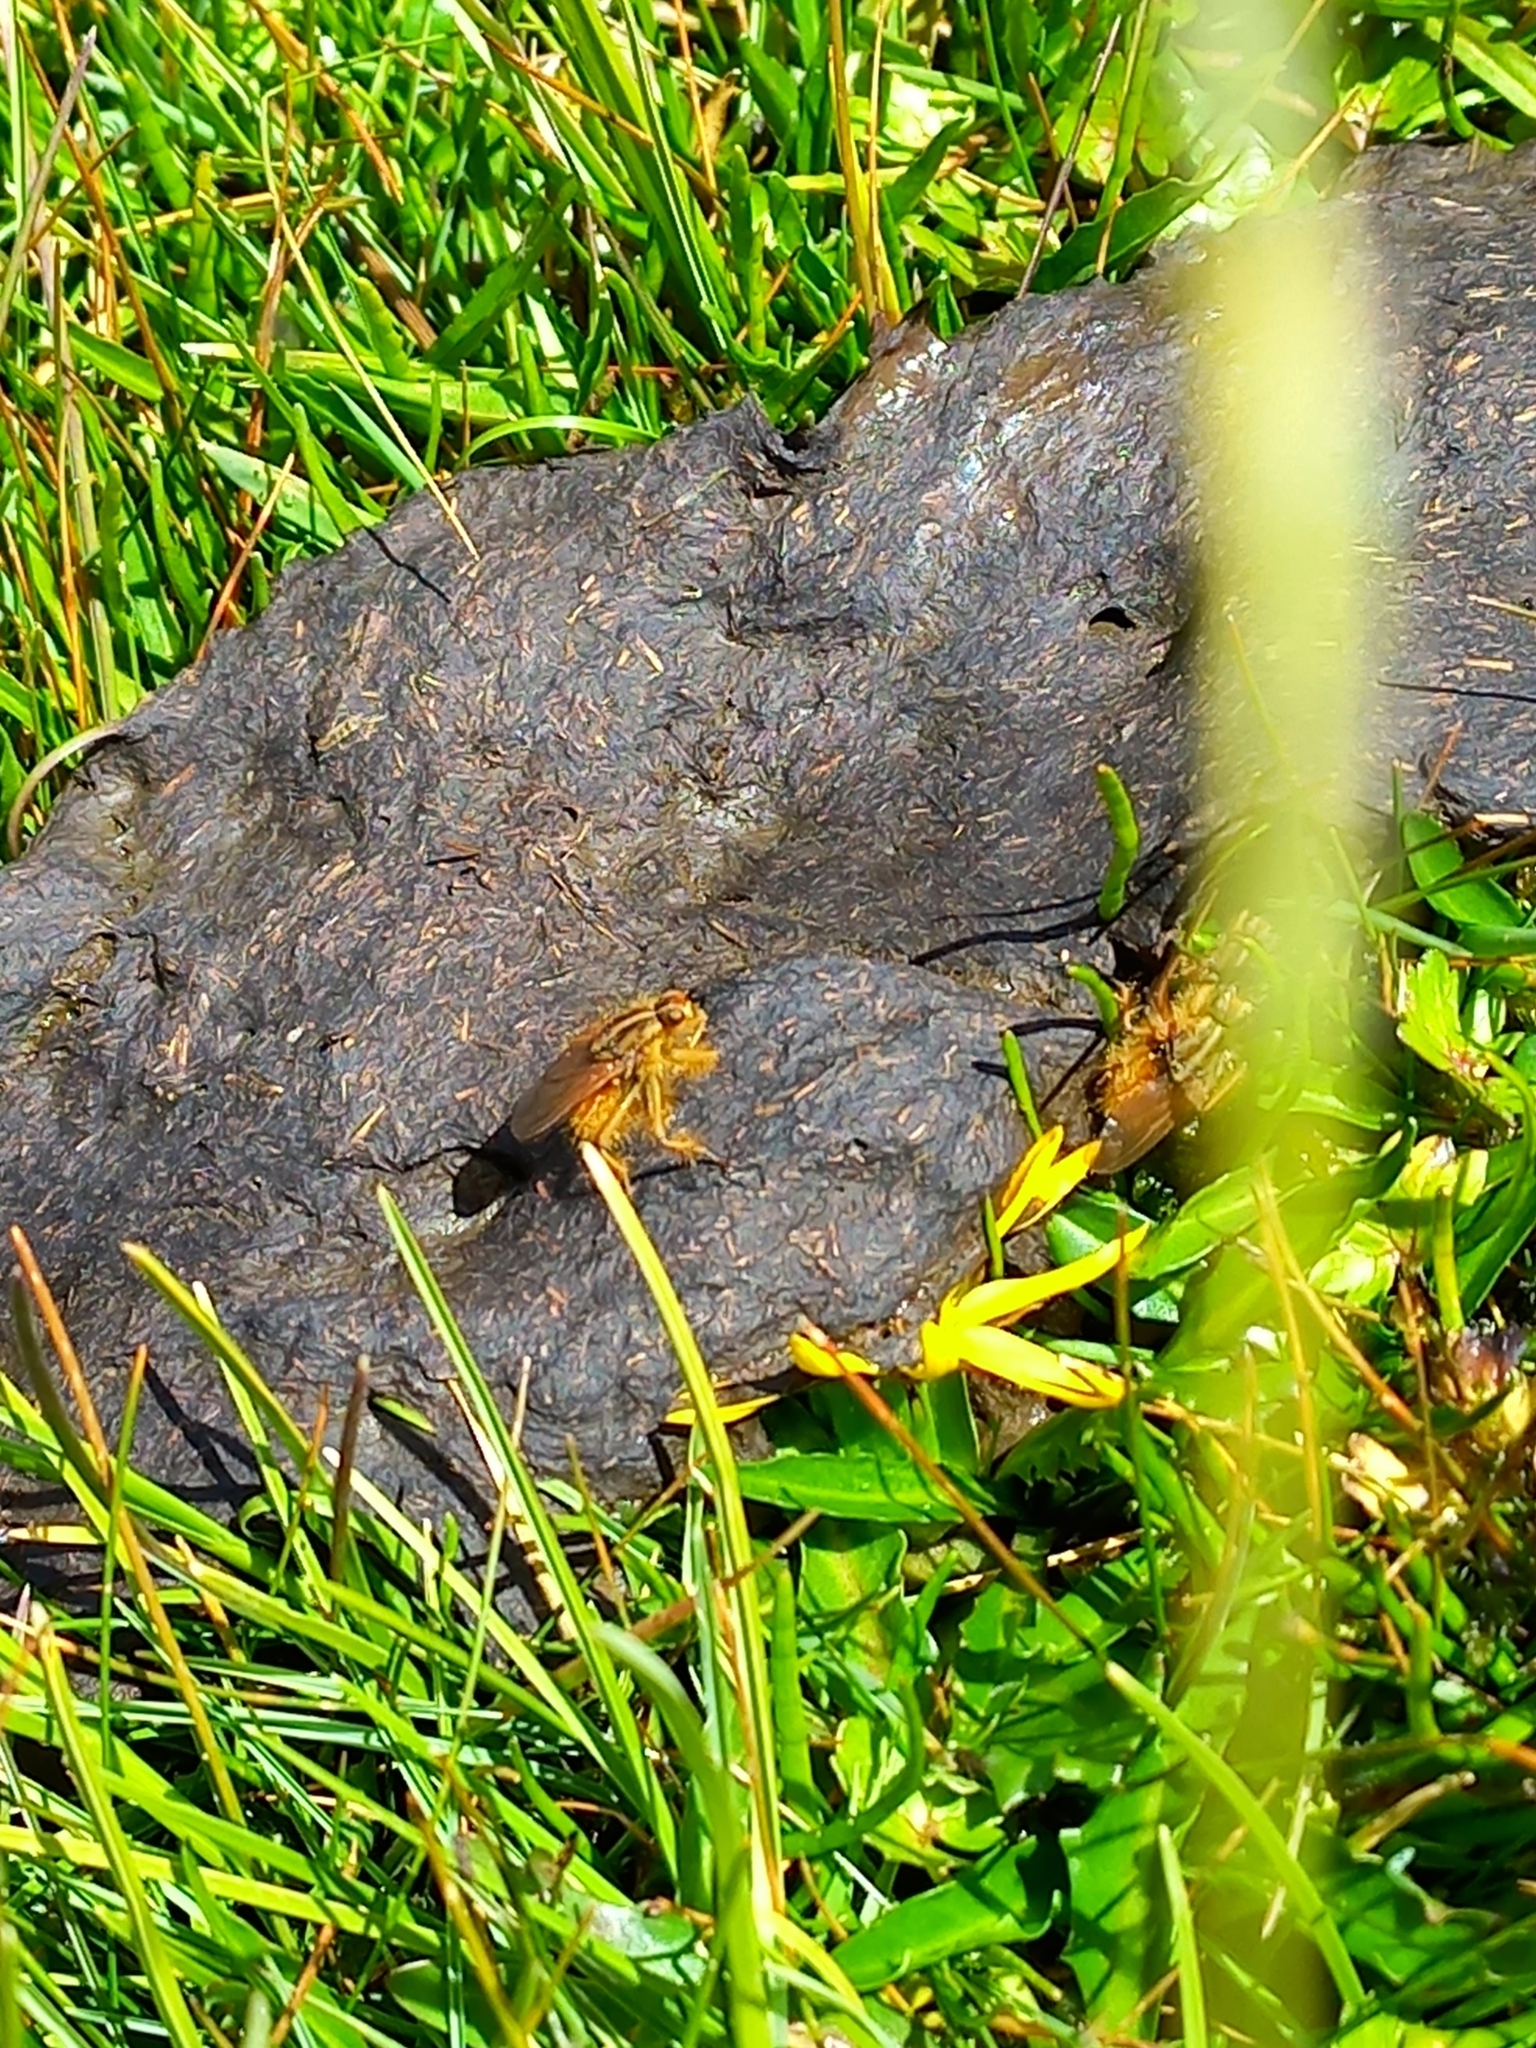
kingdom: Animalia
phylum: Arthropoda
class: Insecta
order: Diptera
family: Scathophagidae
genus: Scathophaga
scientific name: Scathophaga stercoraria
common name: Yellow dung fly
